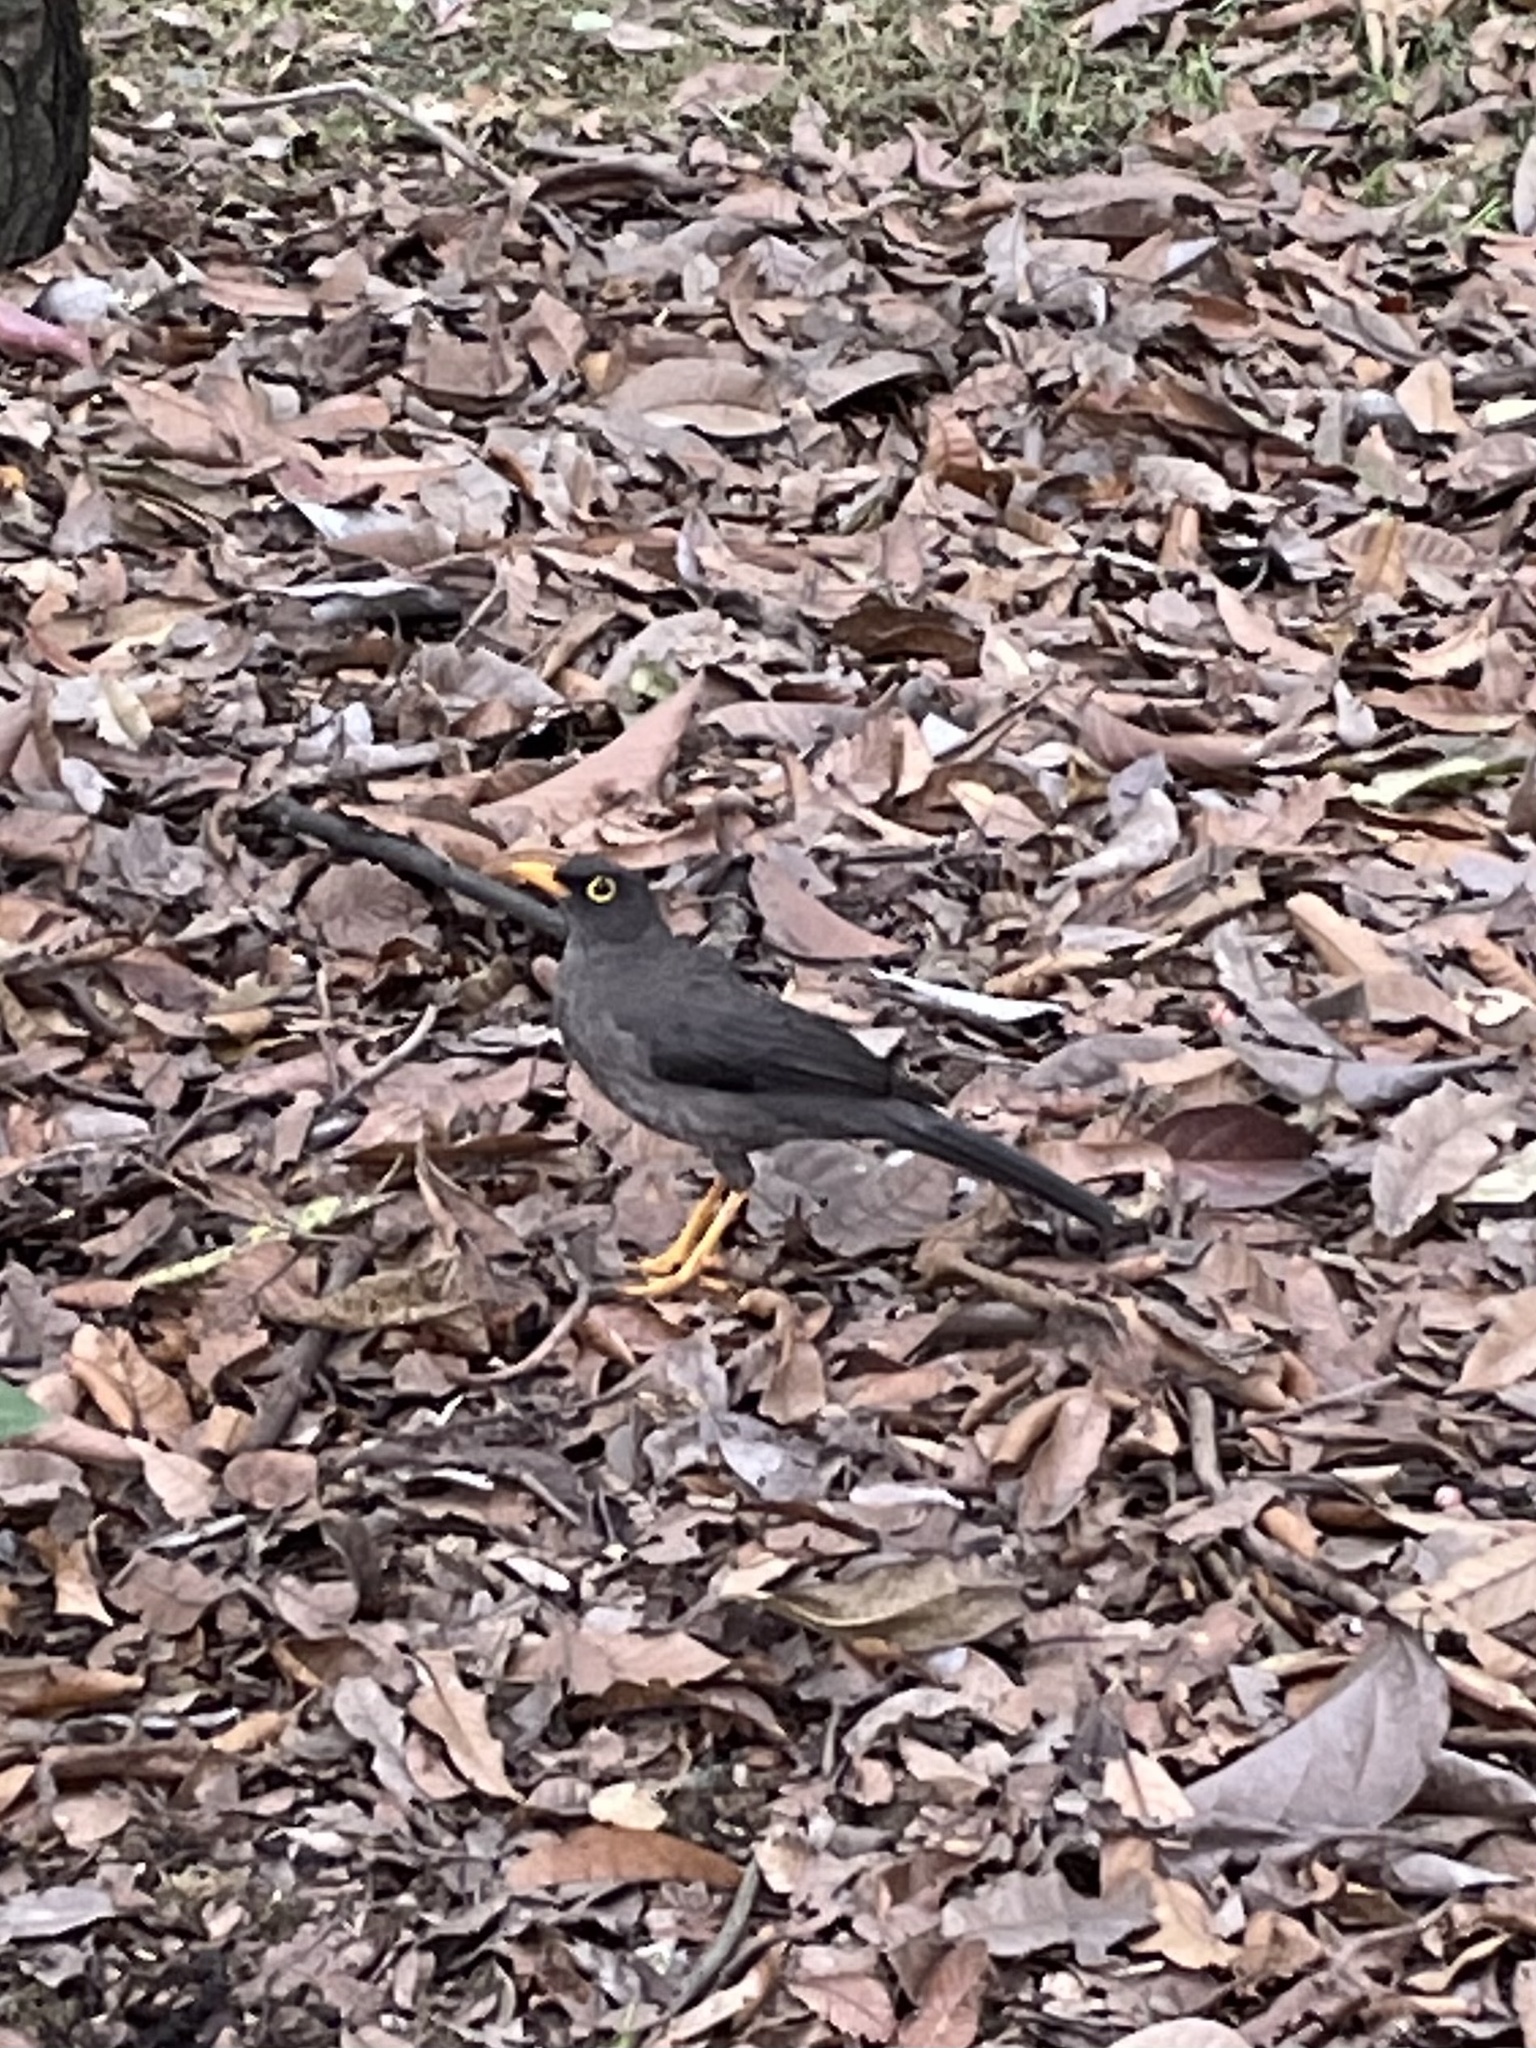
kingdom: Animalia
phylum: Chordata
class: Aves
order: Passeriformes
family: Turdidae
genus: Turdus
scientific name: Turdus fuscater
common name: Great thrush
